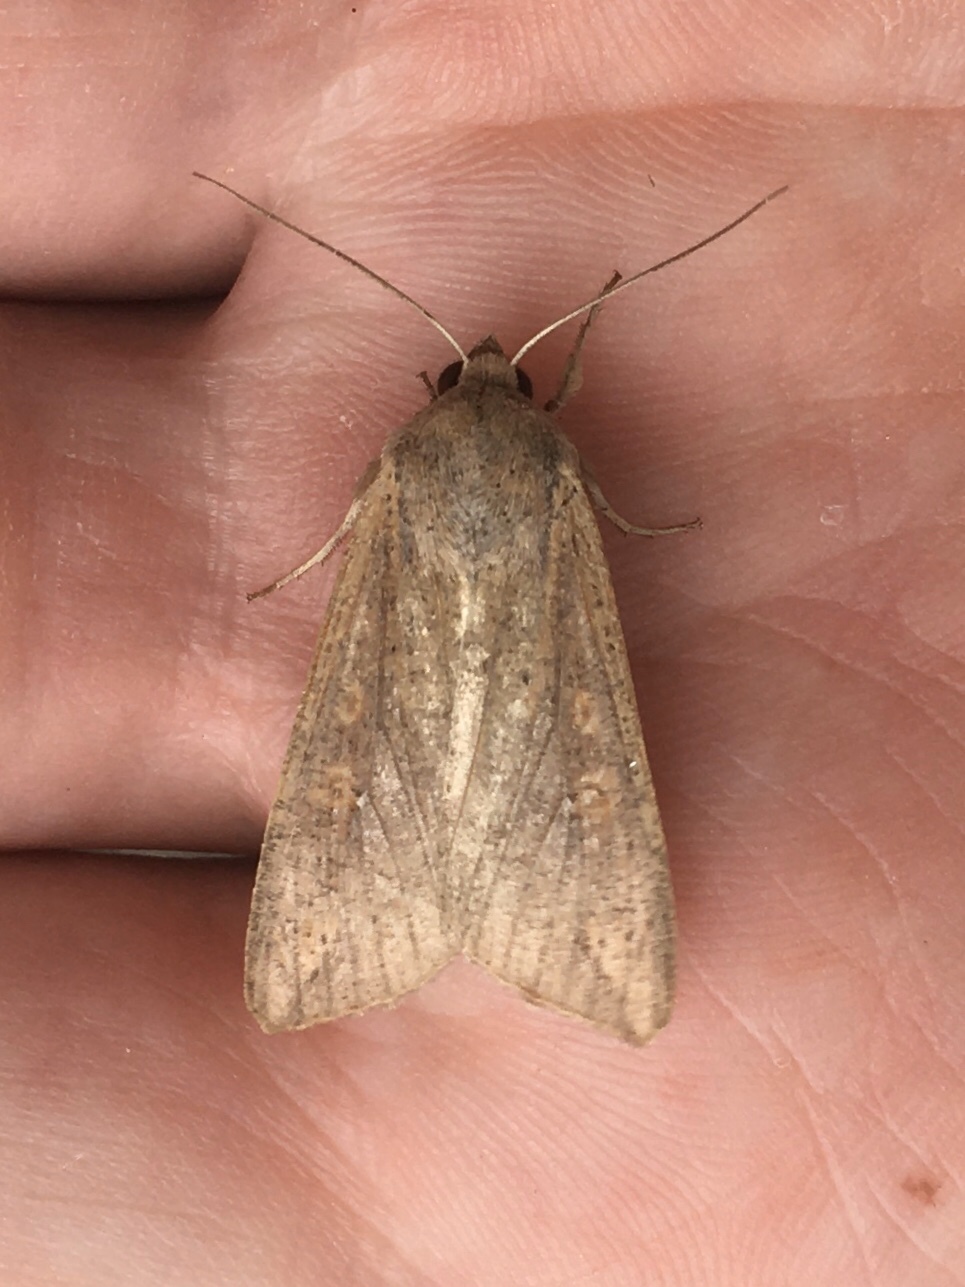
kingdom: Animalia
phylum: Arthropoda
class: Insecta
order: Lepidoptera
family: Noctuidae
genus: Mythimna
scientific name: Mythimna unipuncta
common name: White-speck
